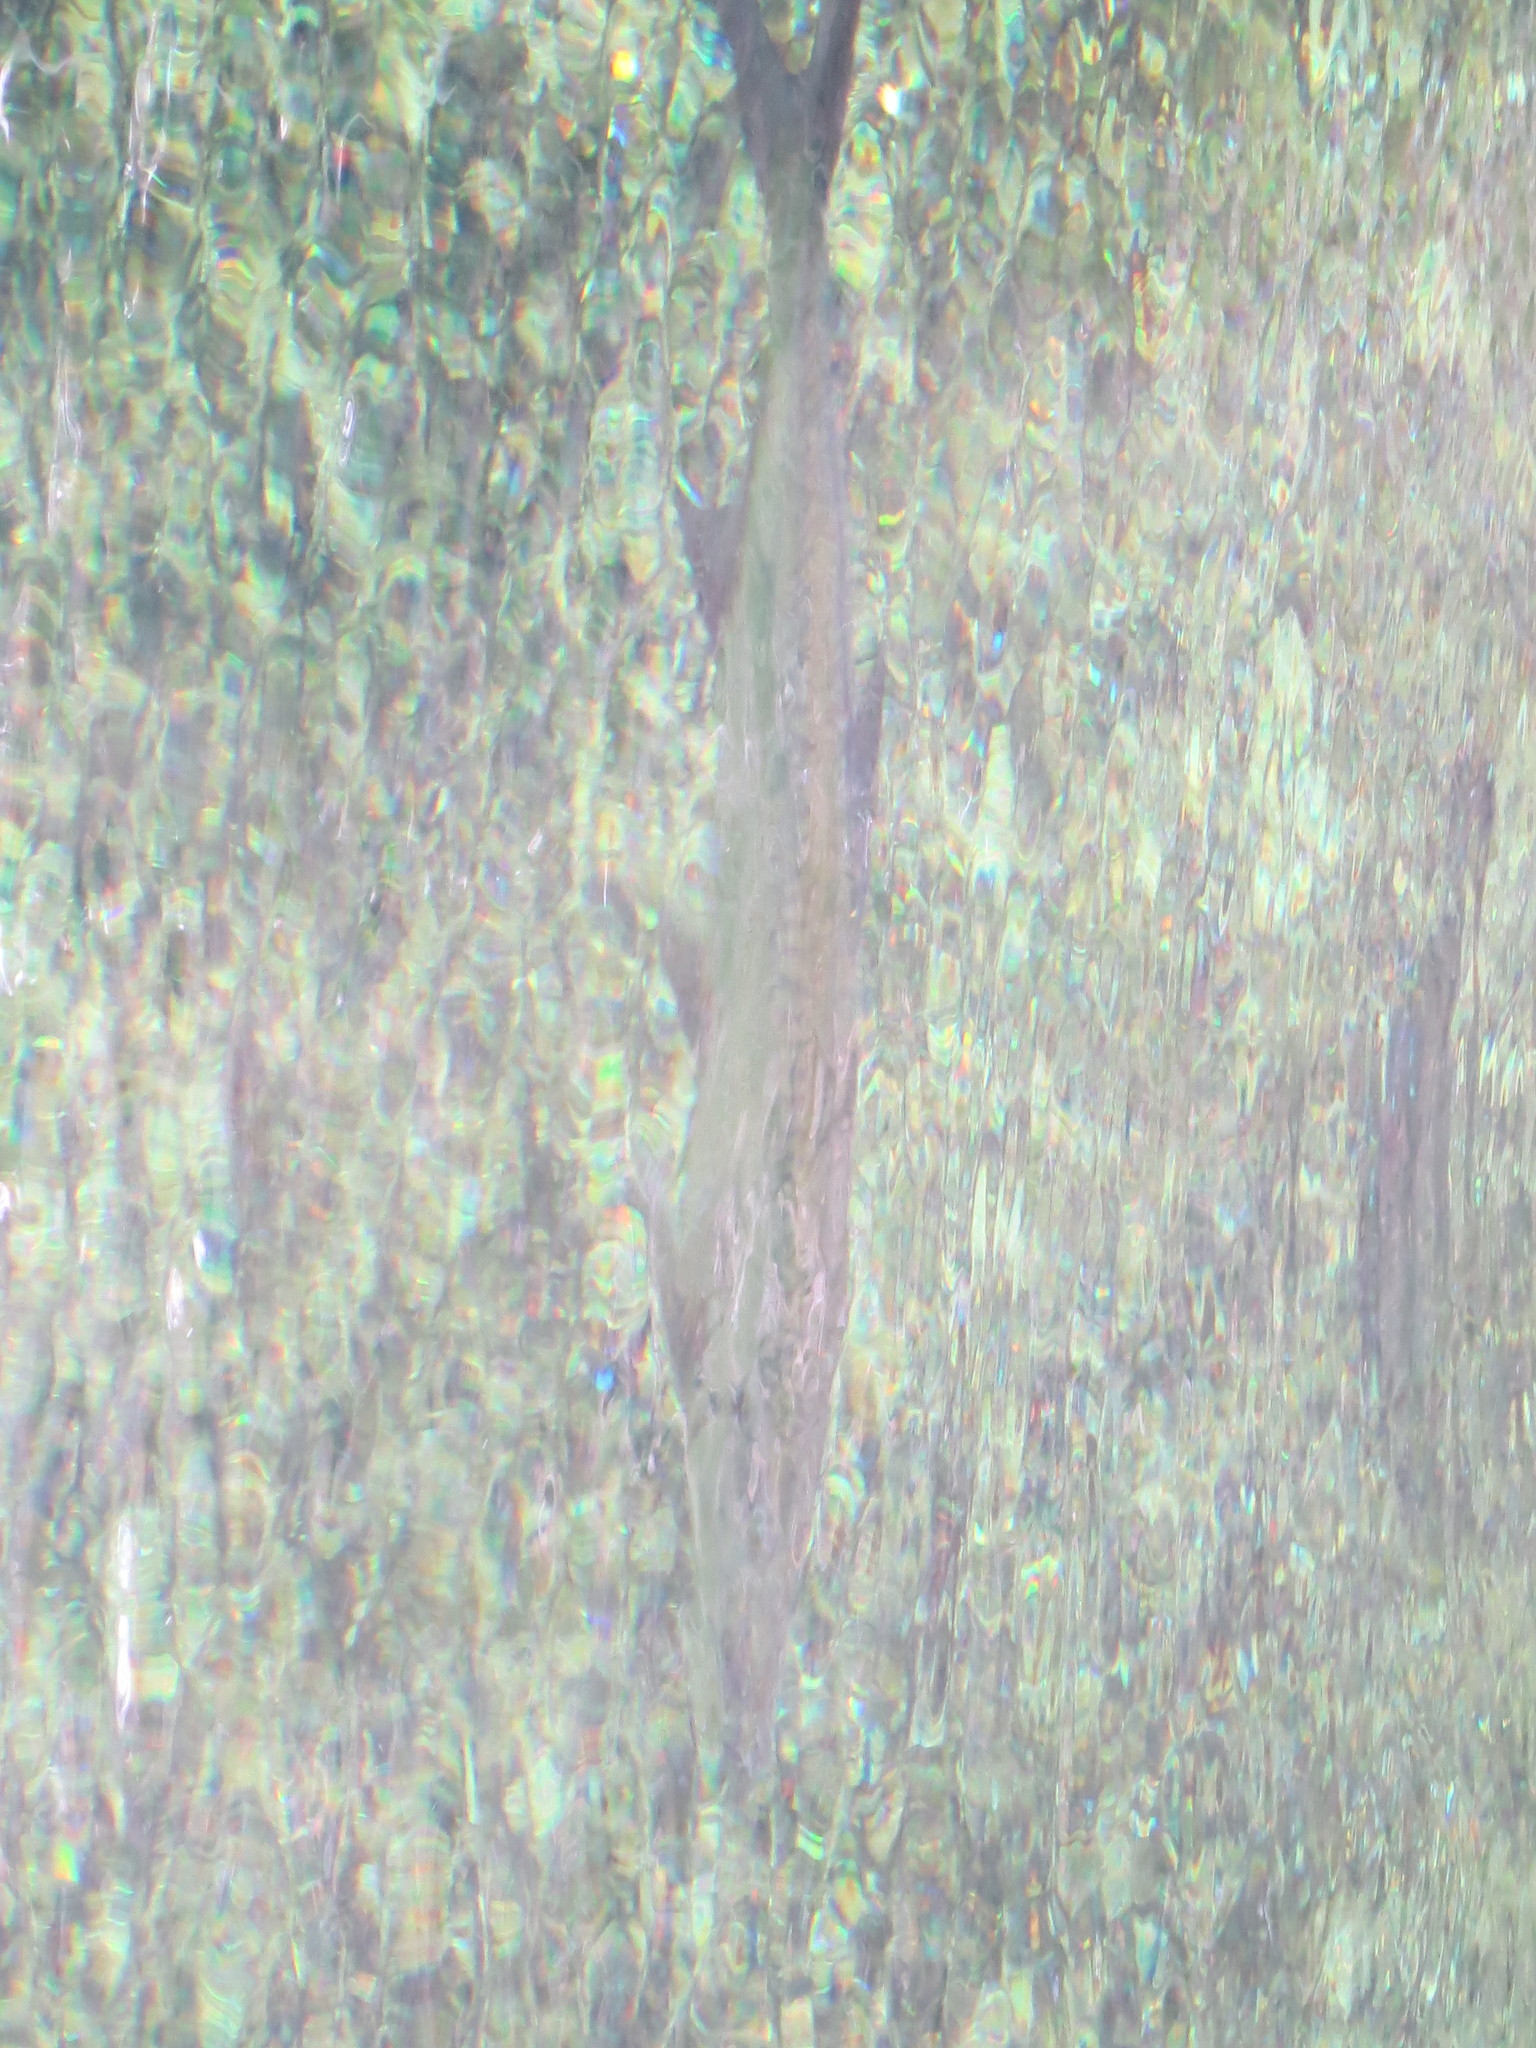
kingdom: Animalia
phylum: Chordata
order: Elopiformes
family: Megalopidae
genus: Megalops
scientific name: Megalops atlanticus
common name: Tarpon
